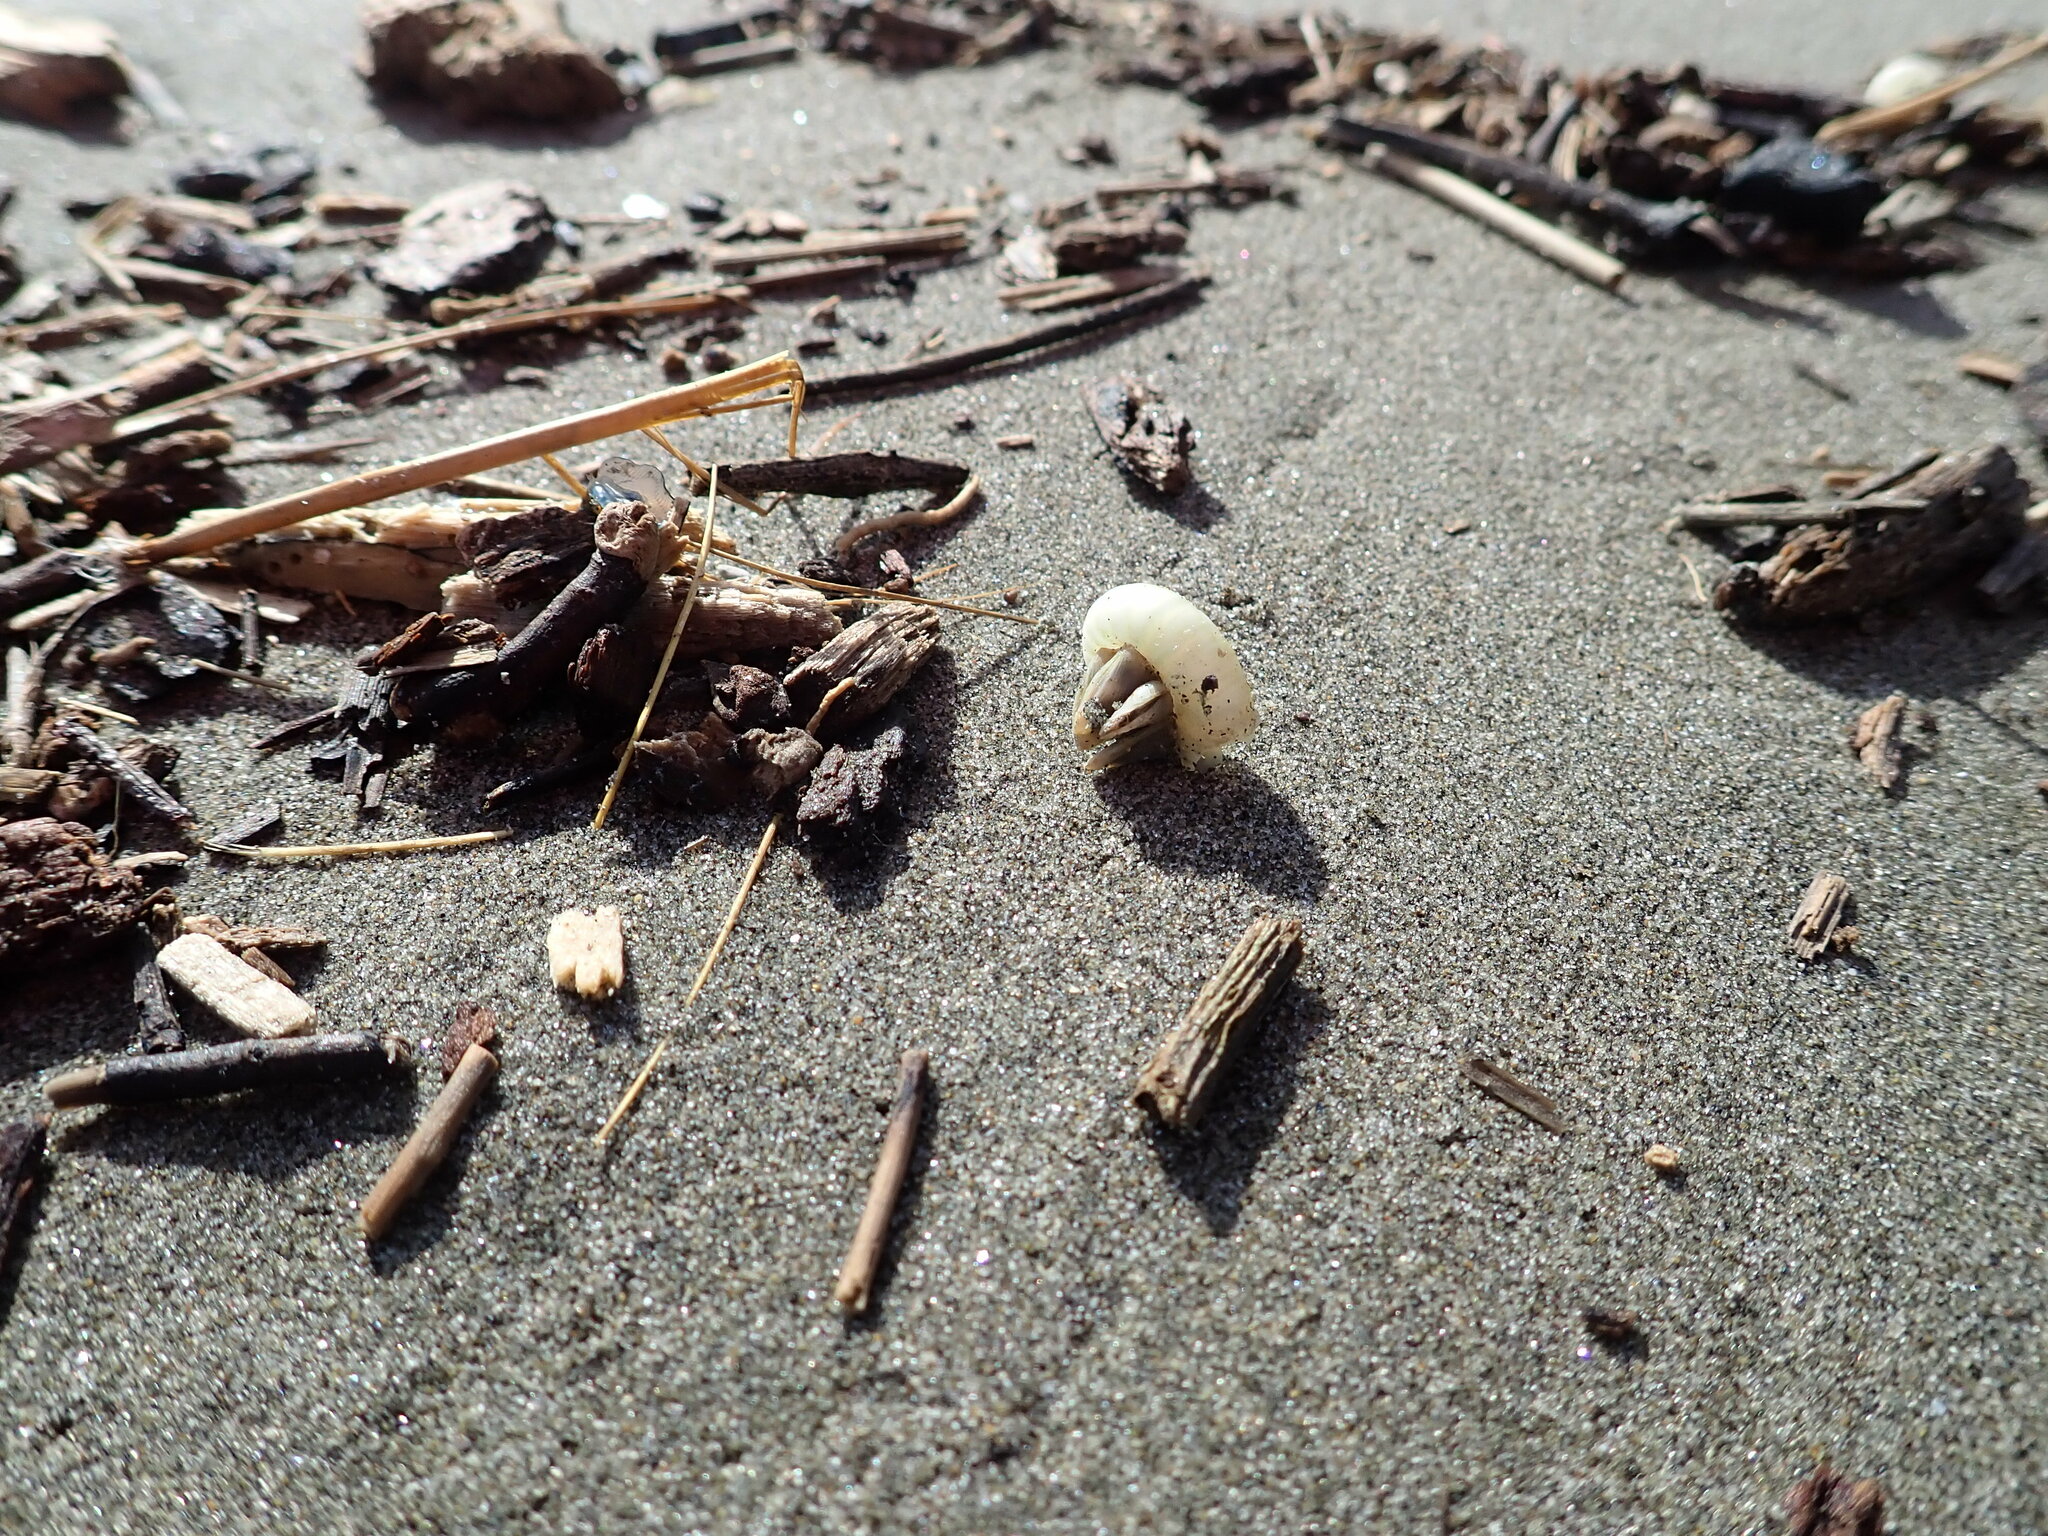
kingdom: Animalia
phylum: Arthropoda
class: Maxillopoda
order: Pedunculata
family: Lepadidae
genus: Lepas
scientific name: Lepas pectinata
